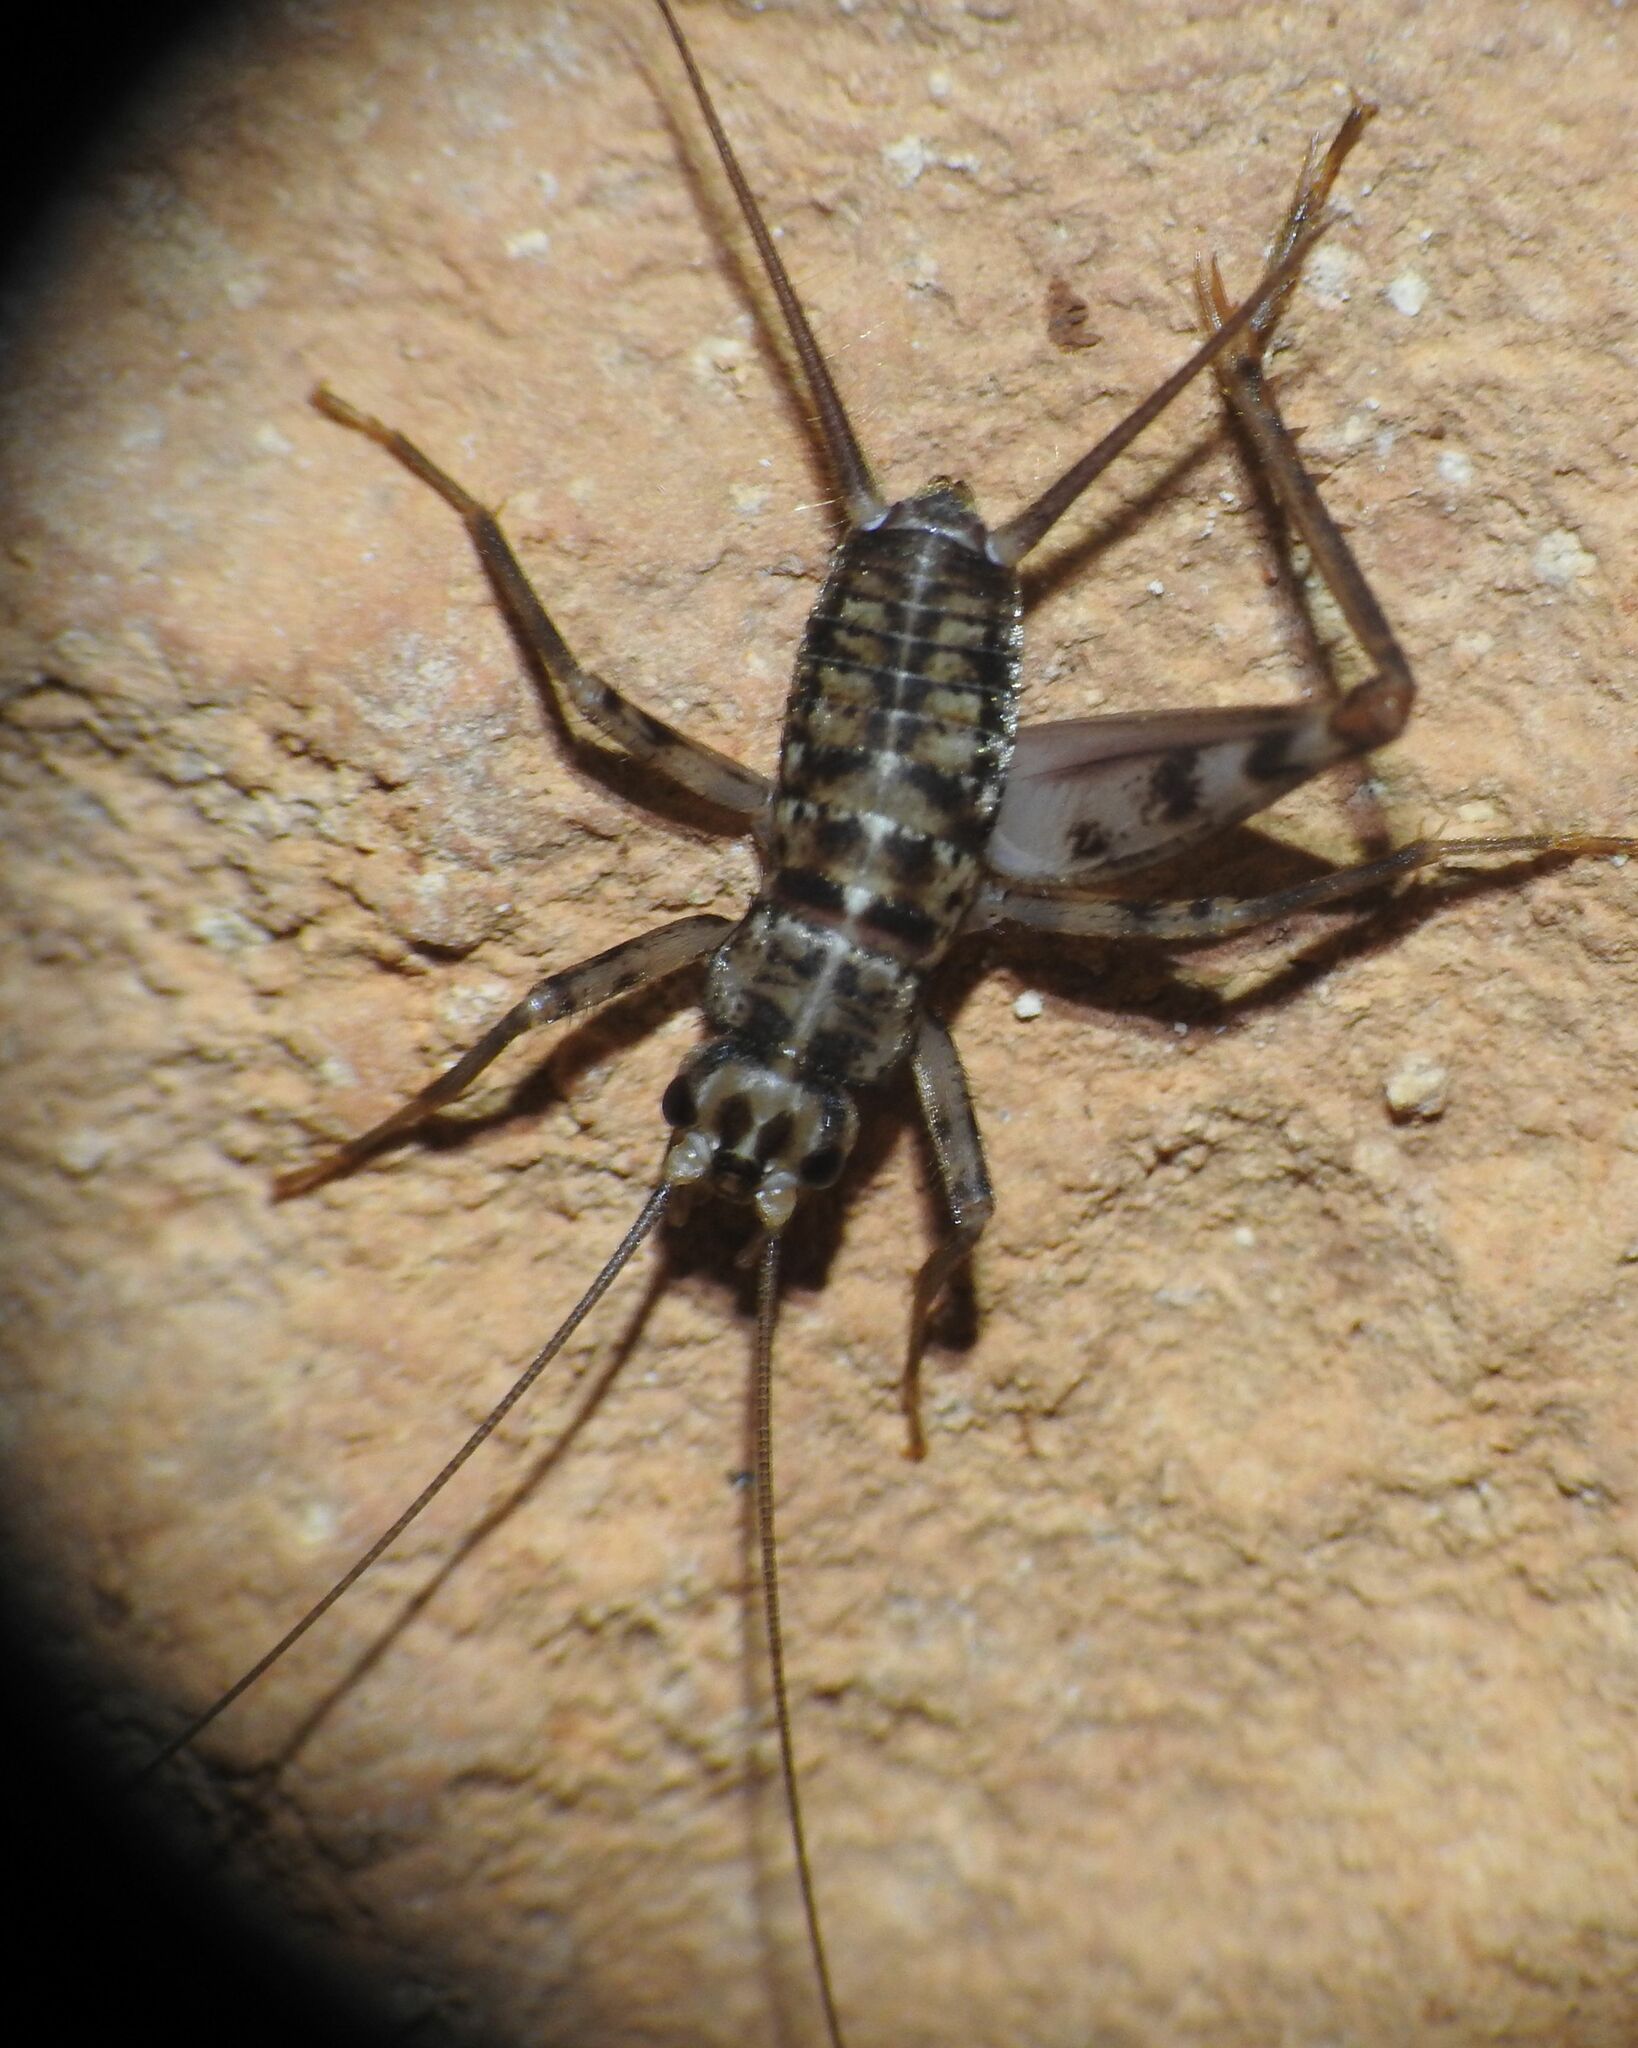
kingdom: Animalia
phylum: Arthropoda
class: Insecta
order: Orthoptera
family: Gryllidae
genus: Gryllomorpha
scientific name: Gryllomorpha dalmatina
